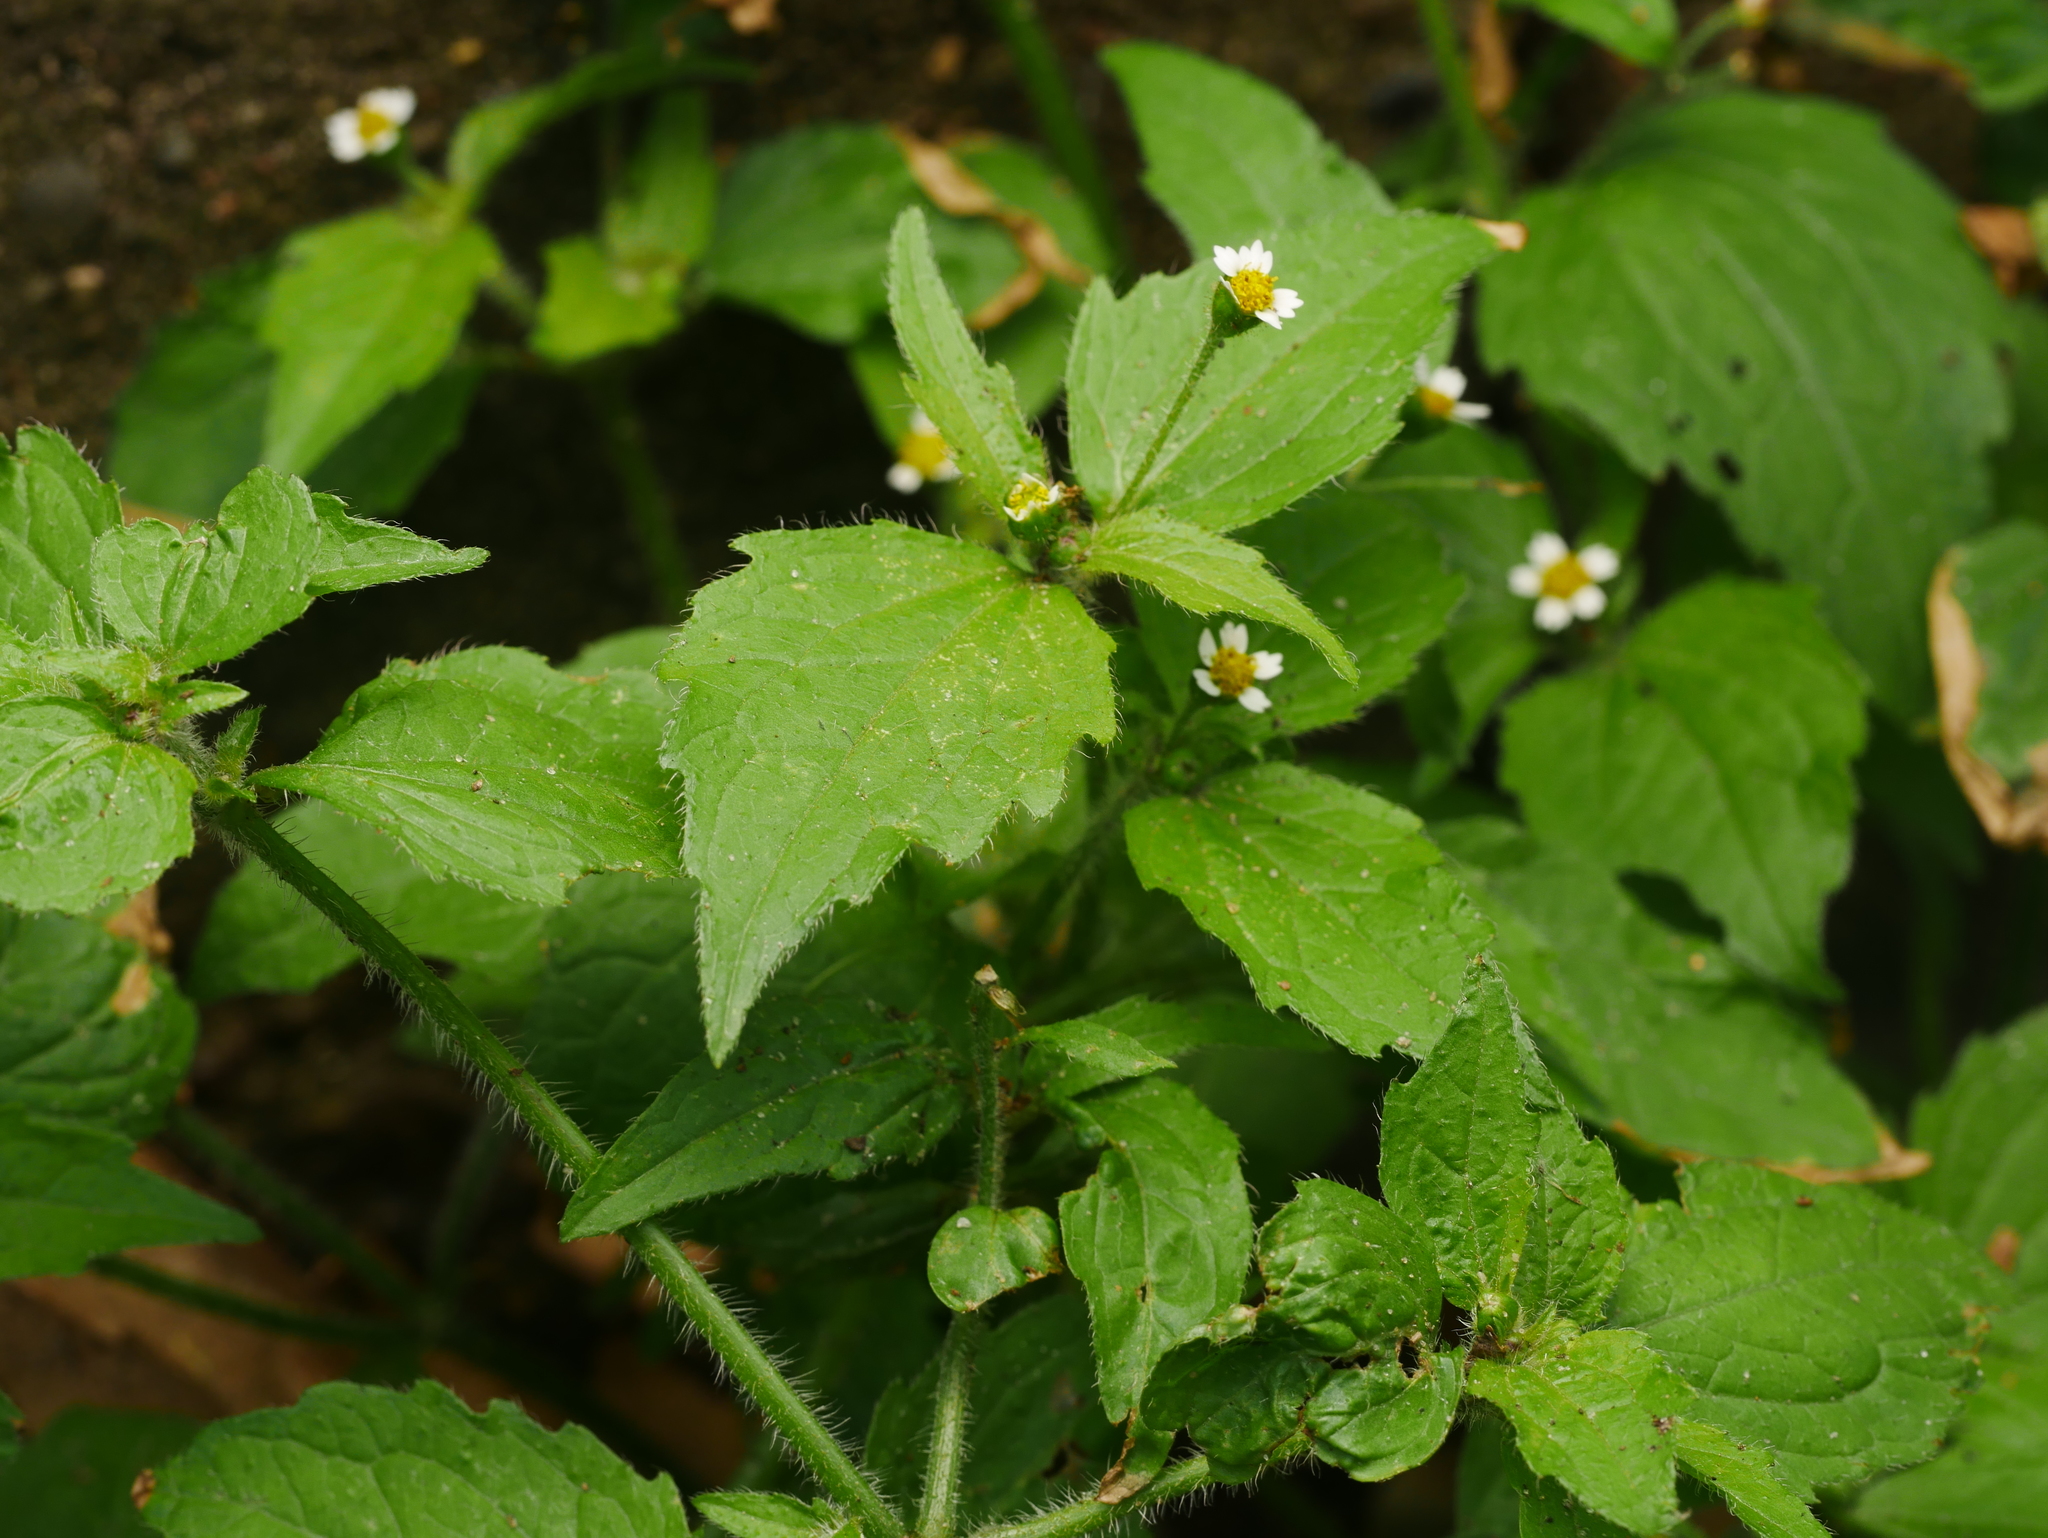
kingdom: Plantae
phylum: Tracheophyta
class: Magnoliopsida
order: Asterales
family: Asteraceae
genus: Galinsoga
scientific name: Galinsoga quadriradiata
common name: Shaggy soldier
